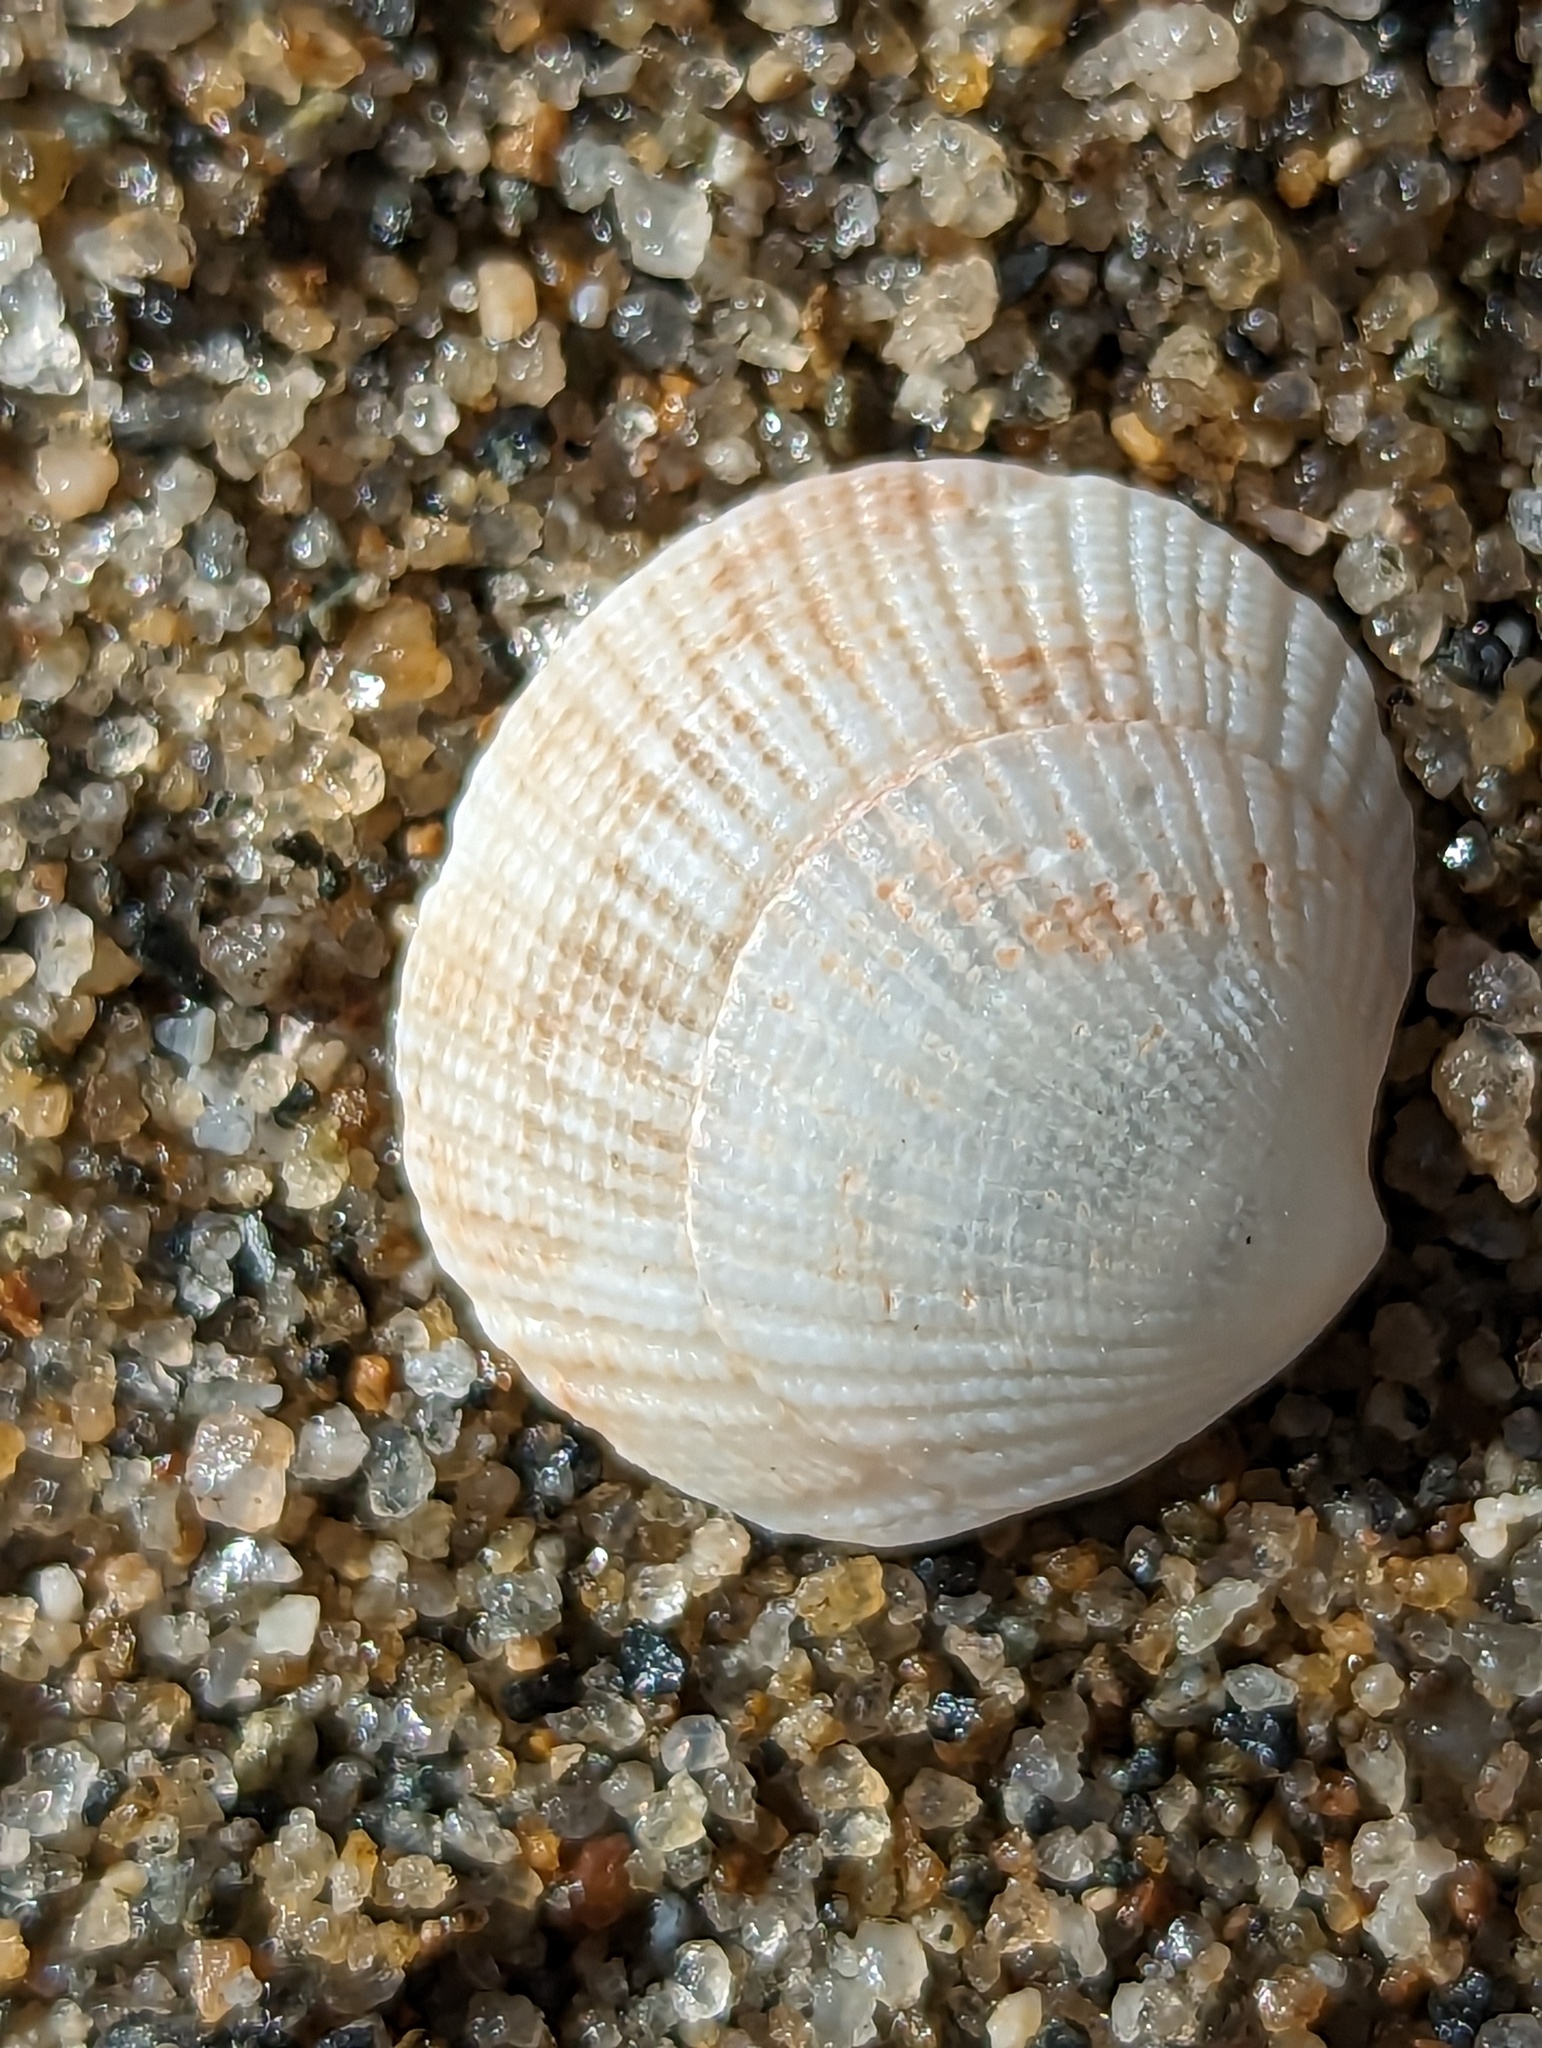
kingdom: Animalia
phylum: Mollusca
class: Bivalvia
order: Lucinida
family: Lucinidae
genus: Ctena
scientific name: Ctena orbiculata
